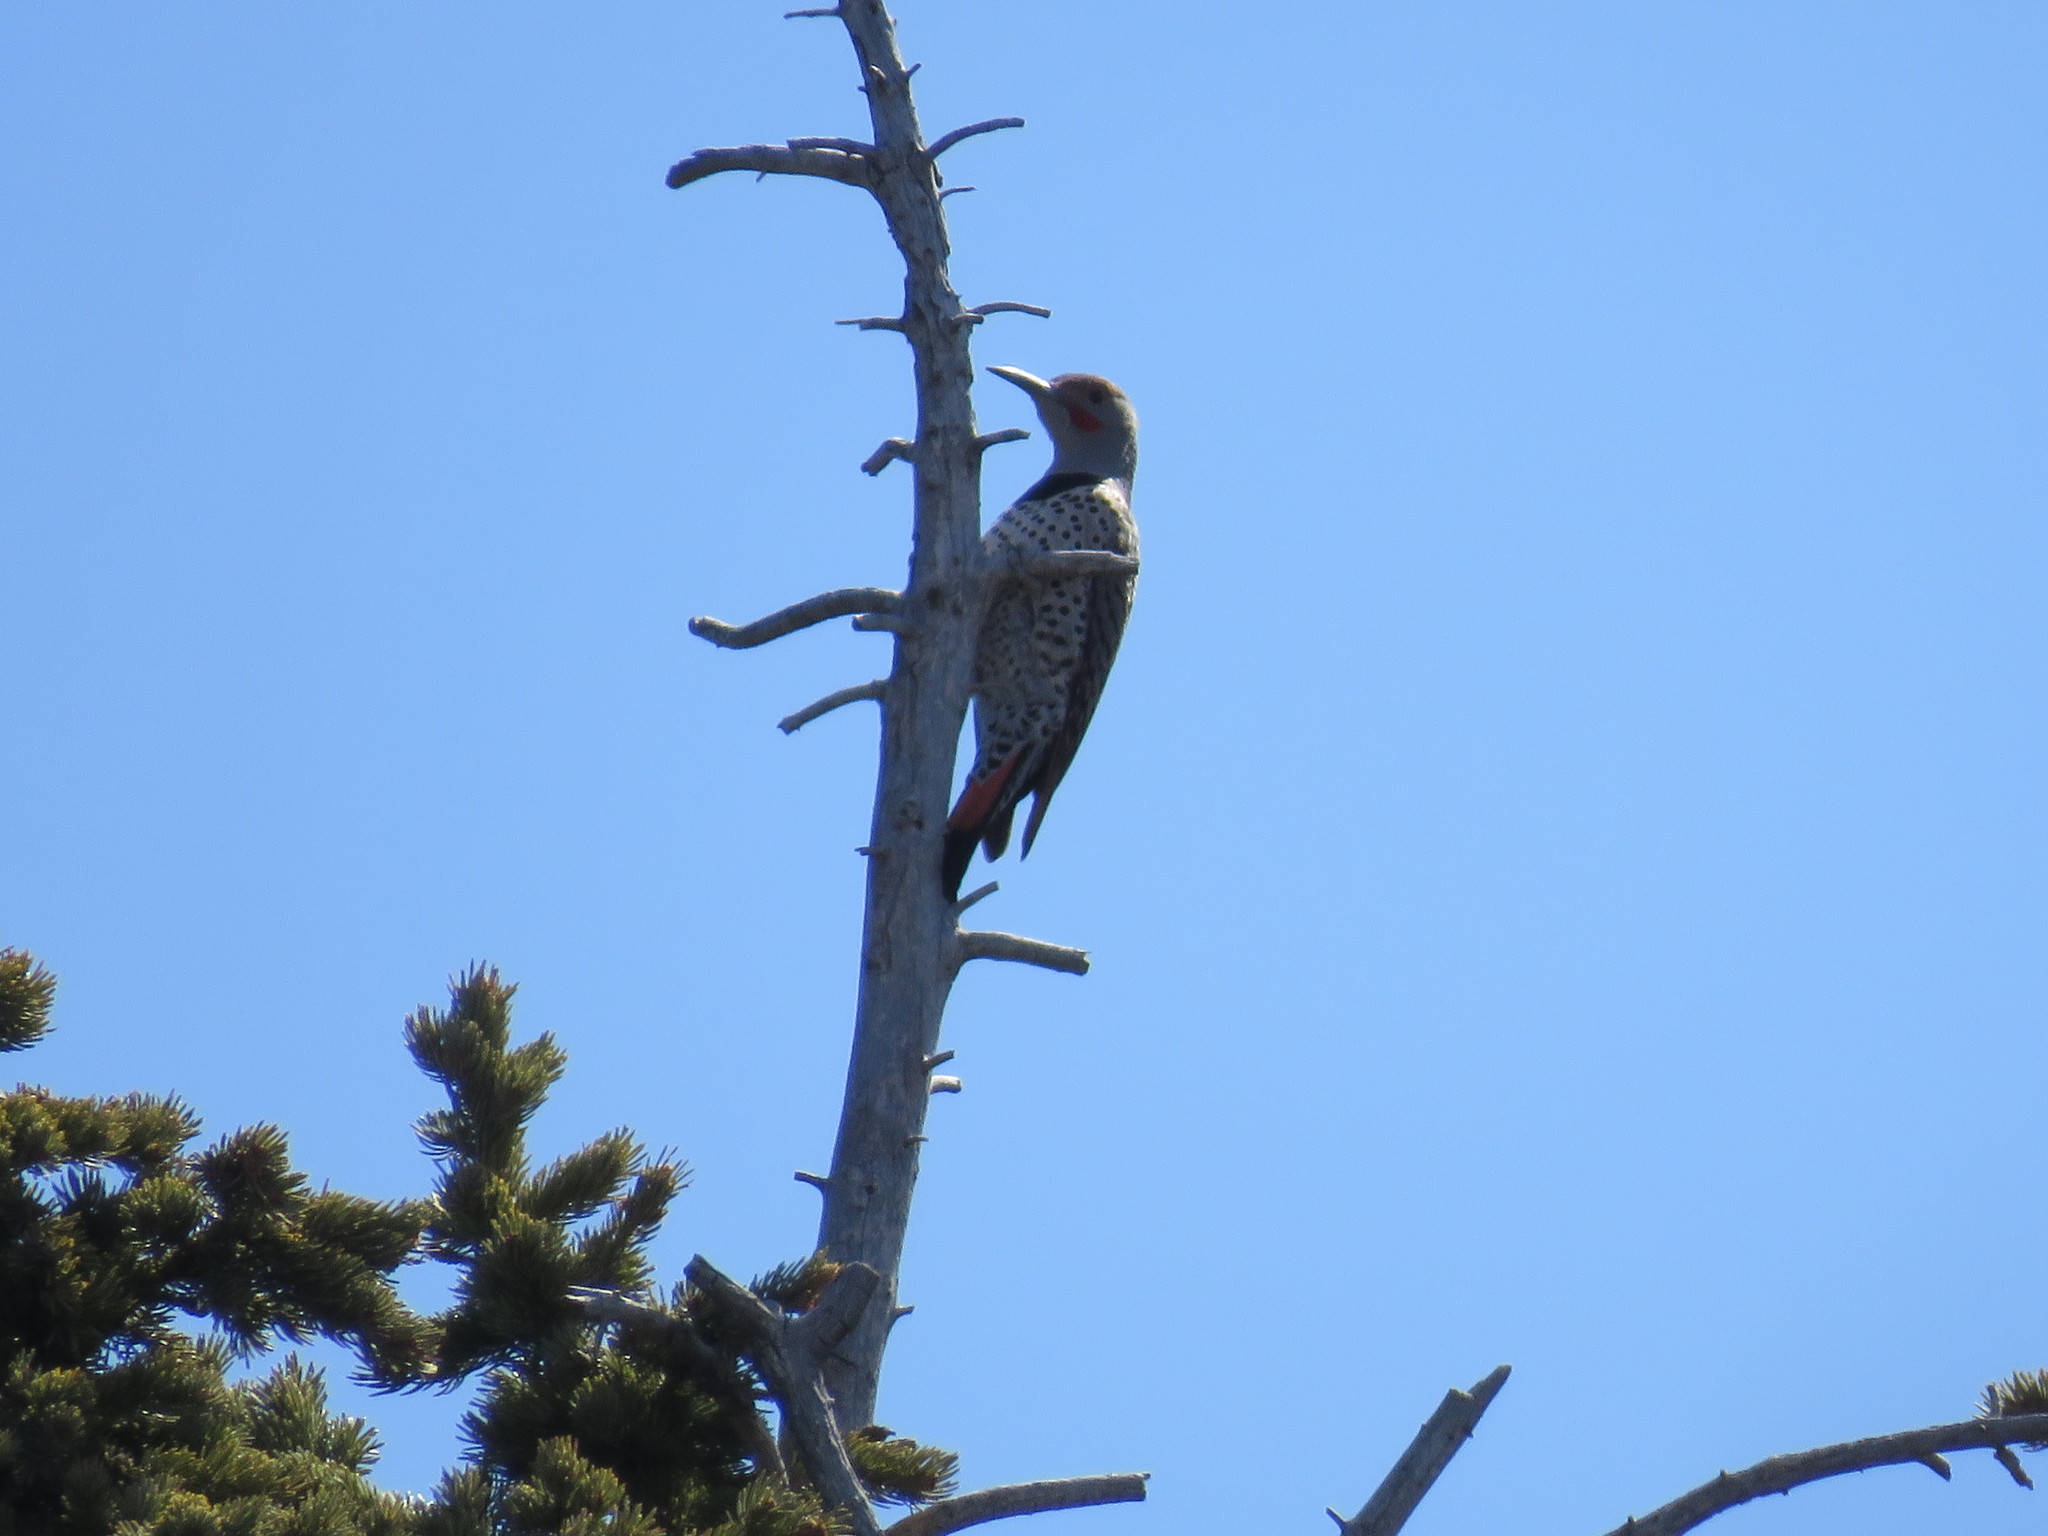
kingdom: Animalia
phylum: Chordata
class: Aves
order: Piciformes
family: Picidae
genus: Colaptes
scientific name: Colaptes auratus
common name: Northern flicker
